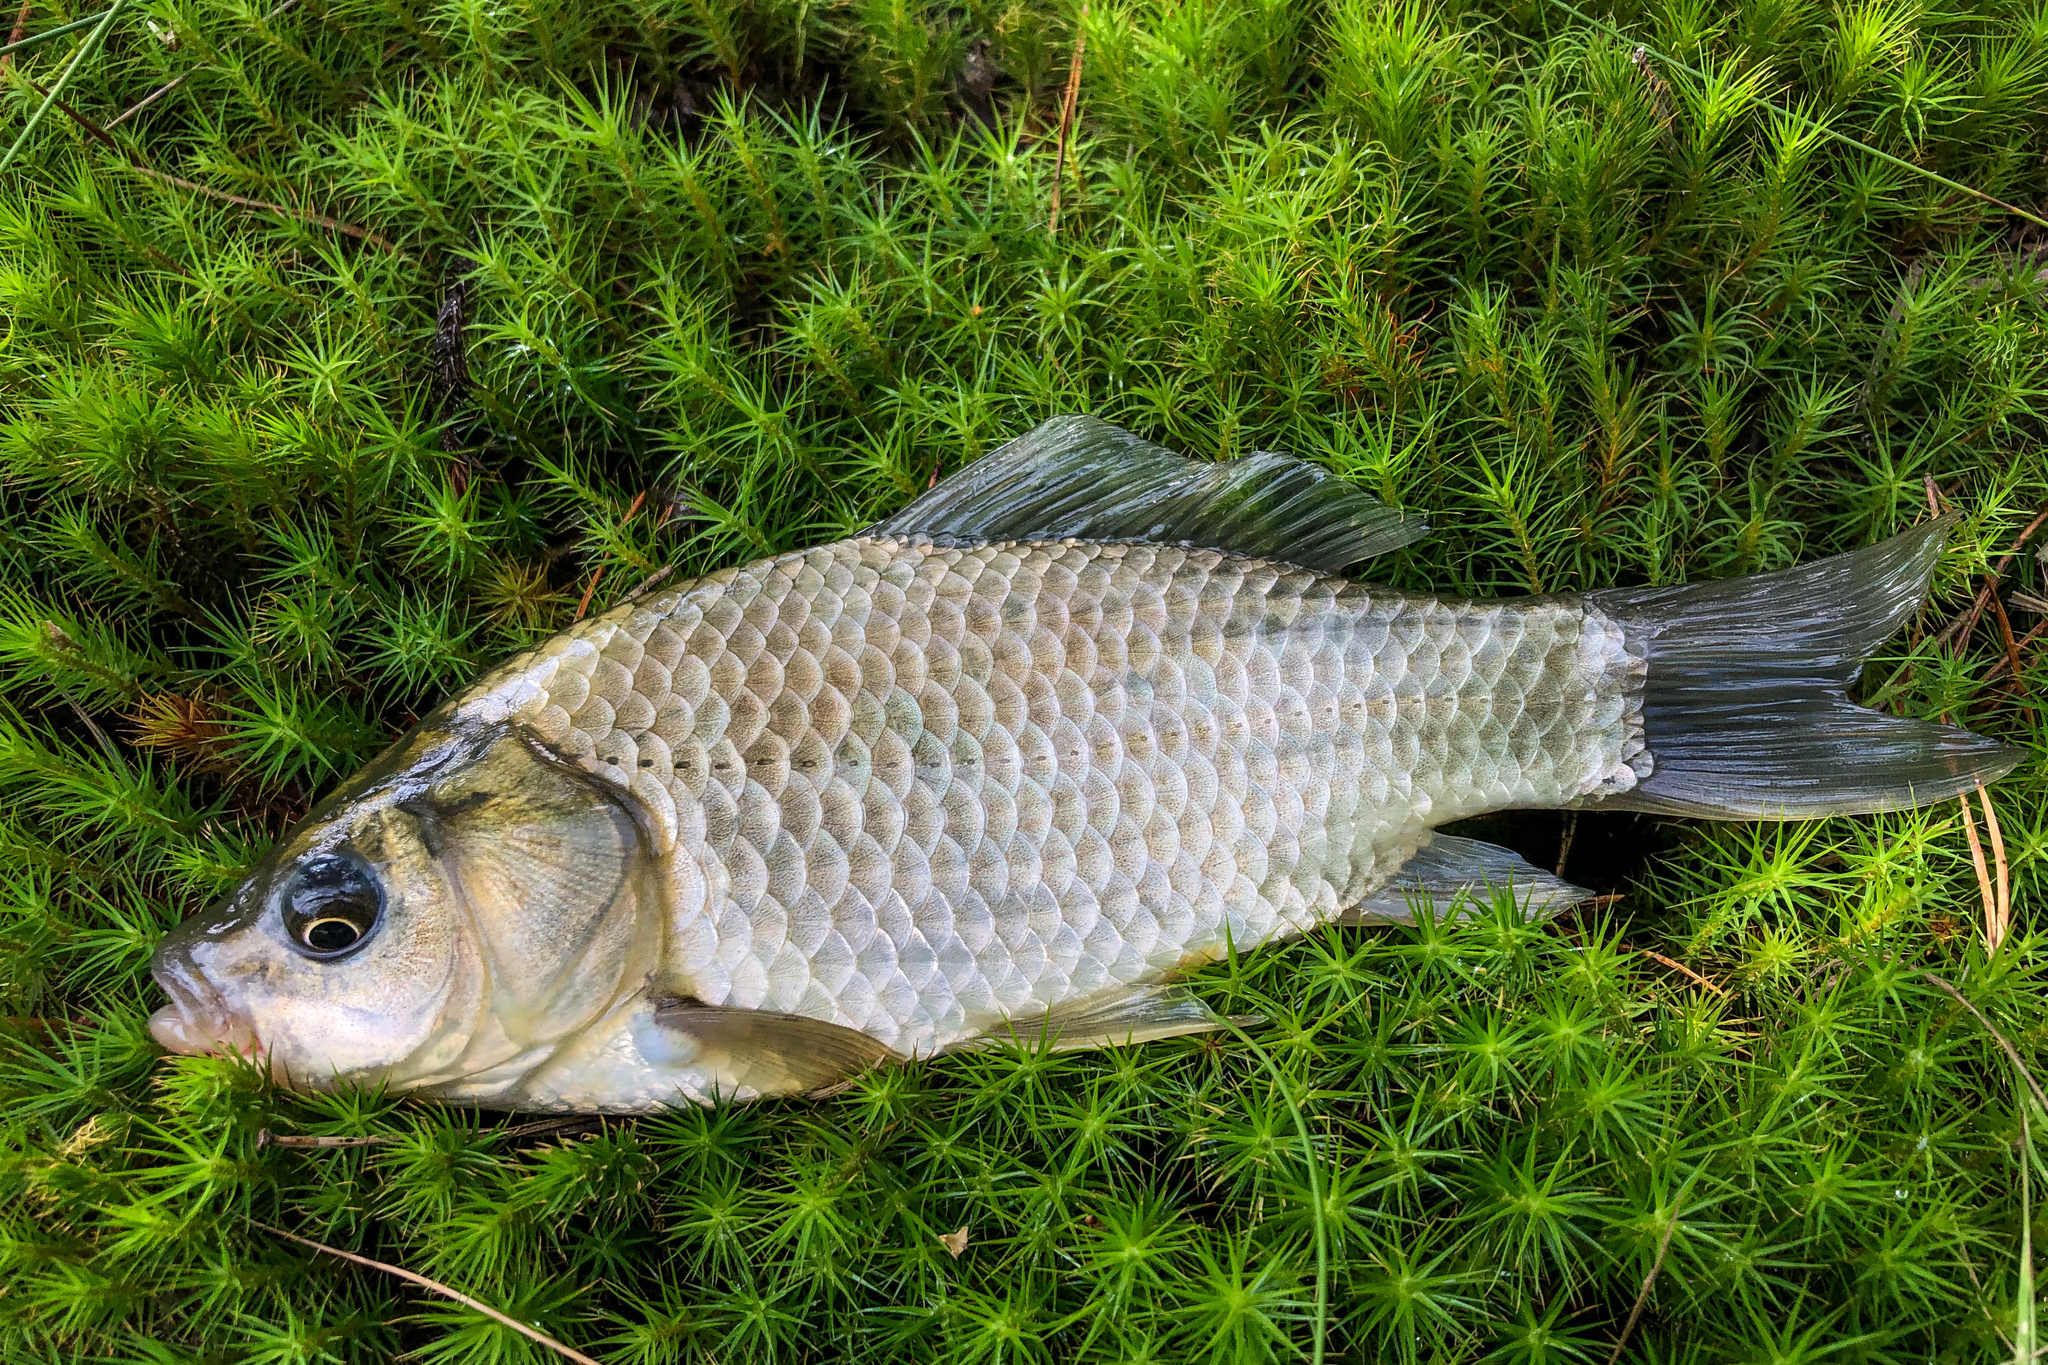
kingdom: Animalia
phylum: Chordata
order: Cypriniformes
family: Cyprinidae
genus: Carassius
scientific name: Carassius gibelio
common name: Prussian carp
